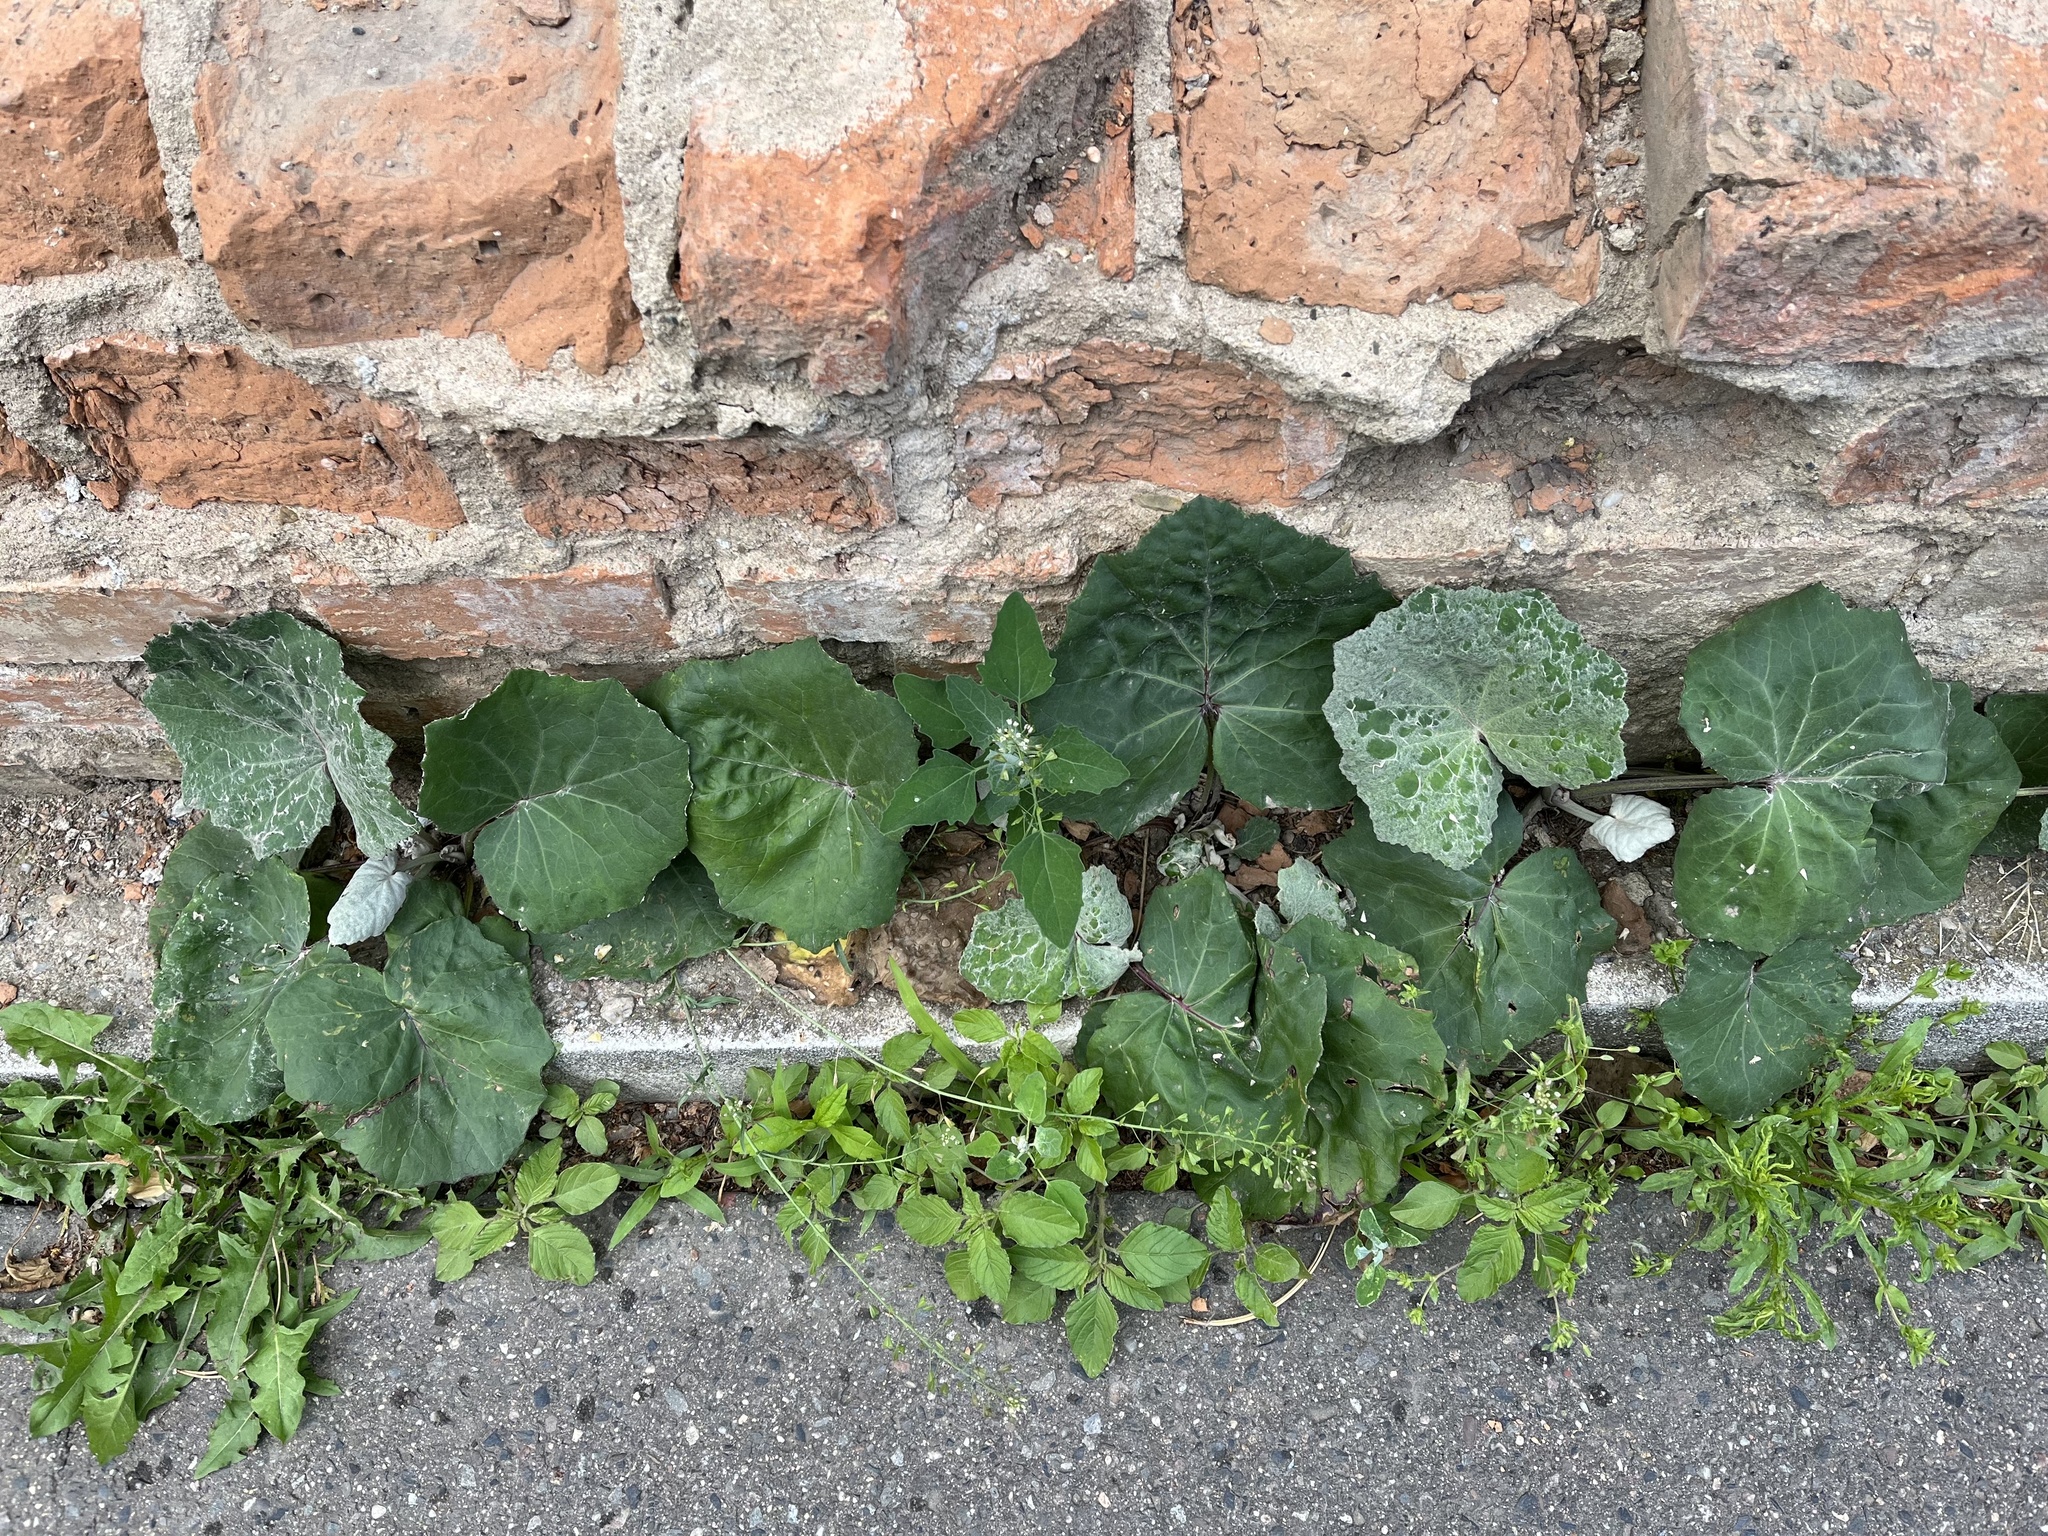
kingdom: Plantae
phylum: Tracheophyta
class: Magnoliopsida
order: Asterales
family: Asteraceae
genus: Tussilago
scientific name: Tussilago farfara
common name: Coltsfoot
